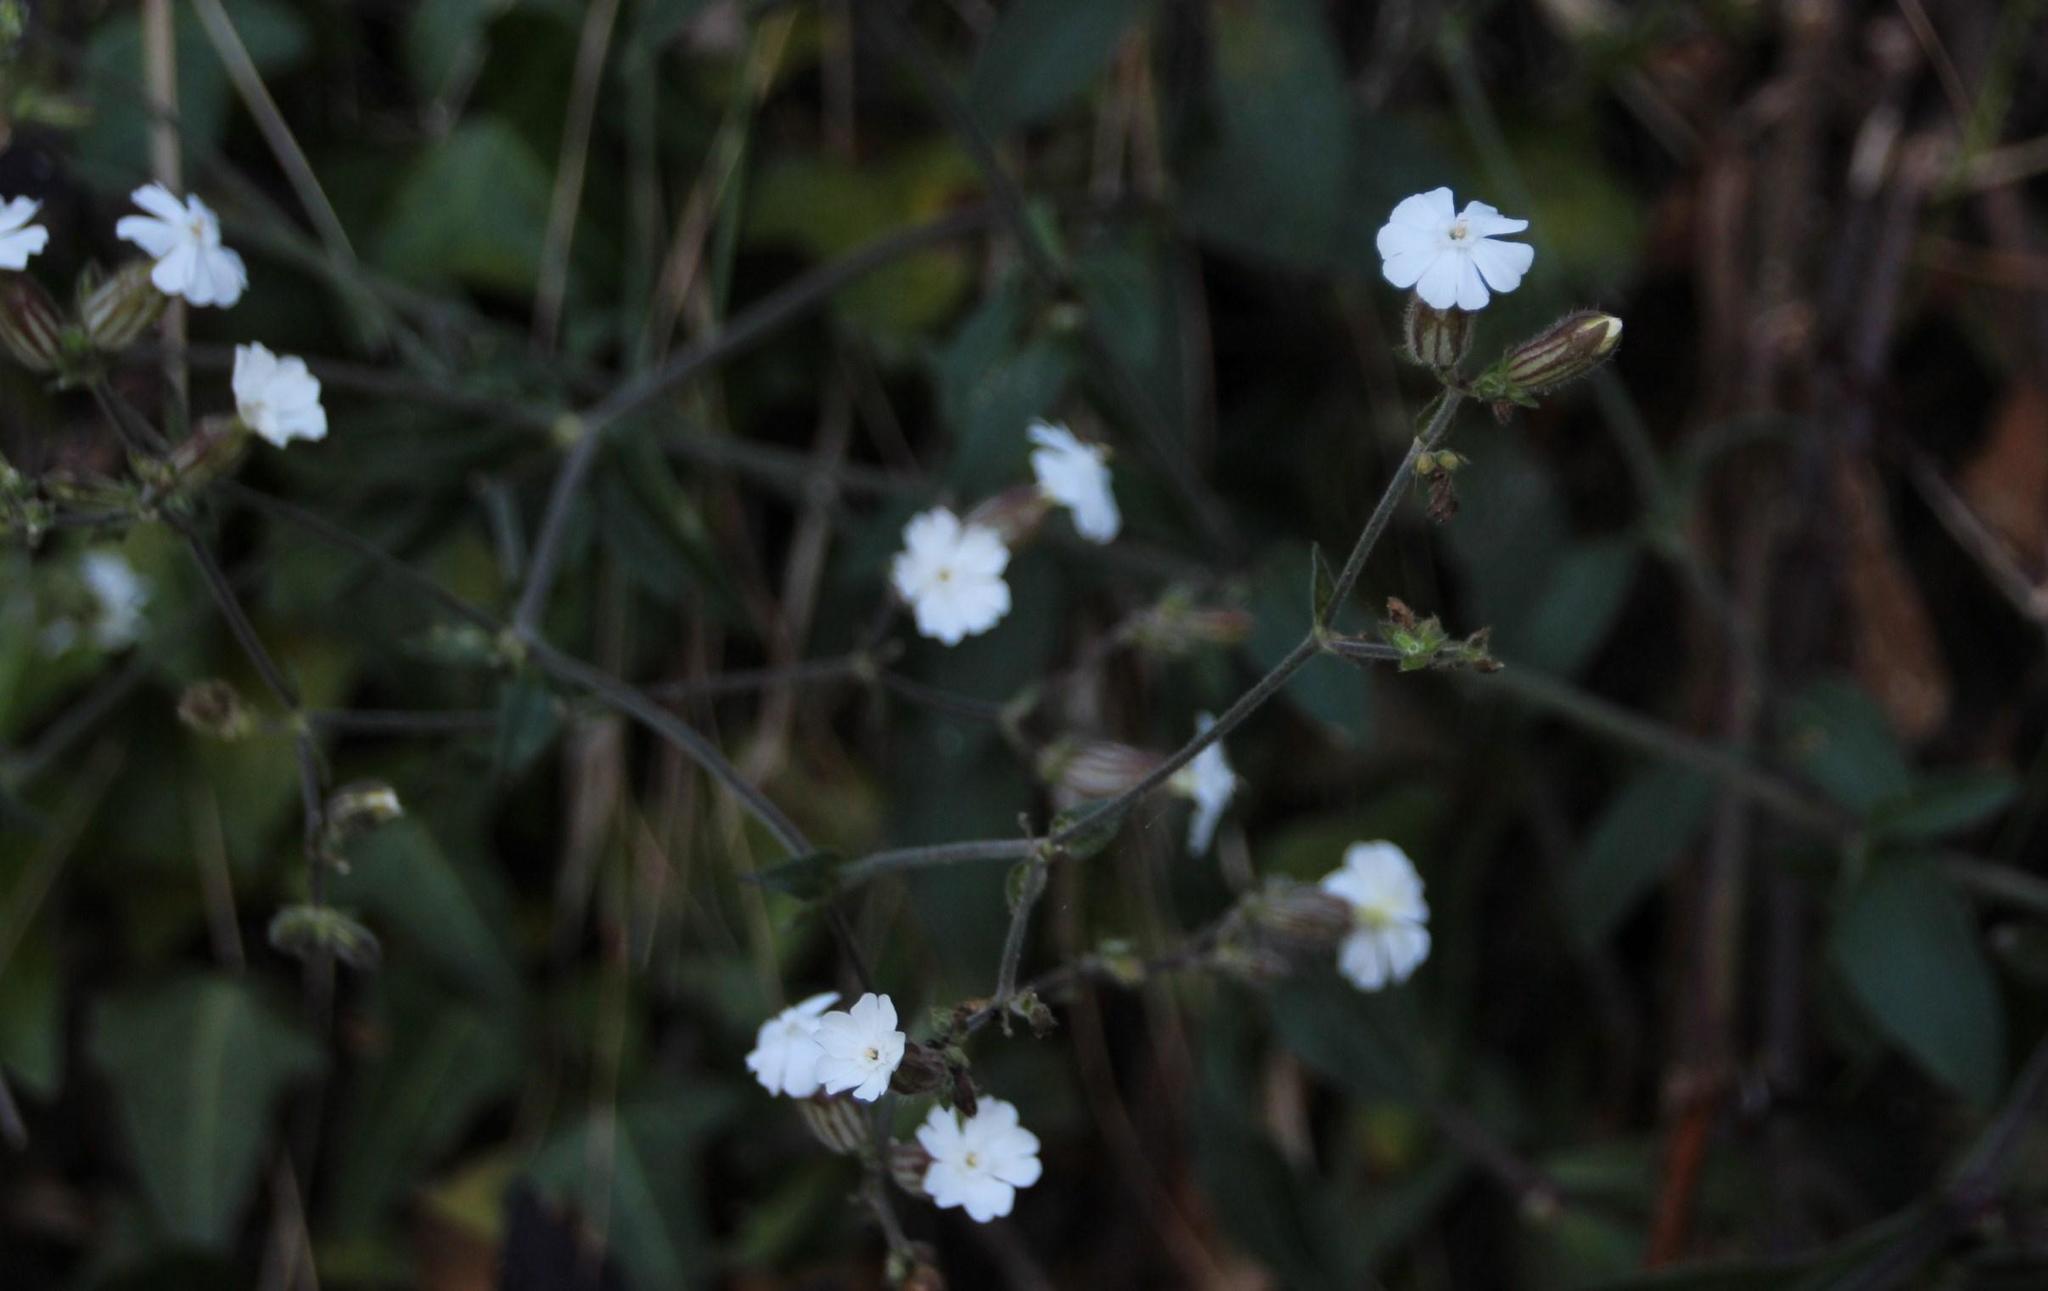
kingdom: Plantae
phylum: Tracheophyta
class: Magnoliopsida
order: Caryophyllales
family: Caryophyllaceae
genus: Silene
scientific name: Silene latifolia
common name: White campion
